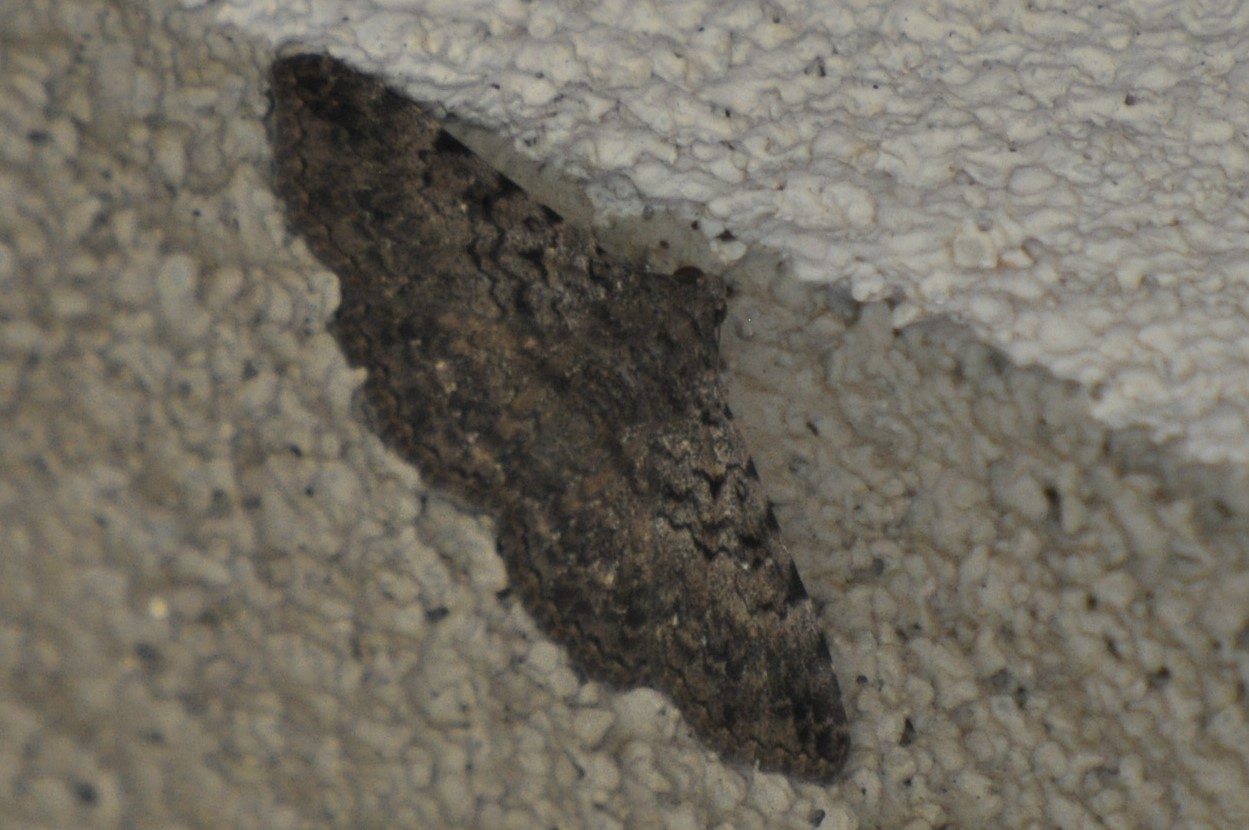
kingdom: Animalia
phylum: Arthropoda
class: Insecta
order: Lepidoptera
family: Erebidae
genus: Polydesma
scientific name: Polydesma boarmoides
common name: Moth
